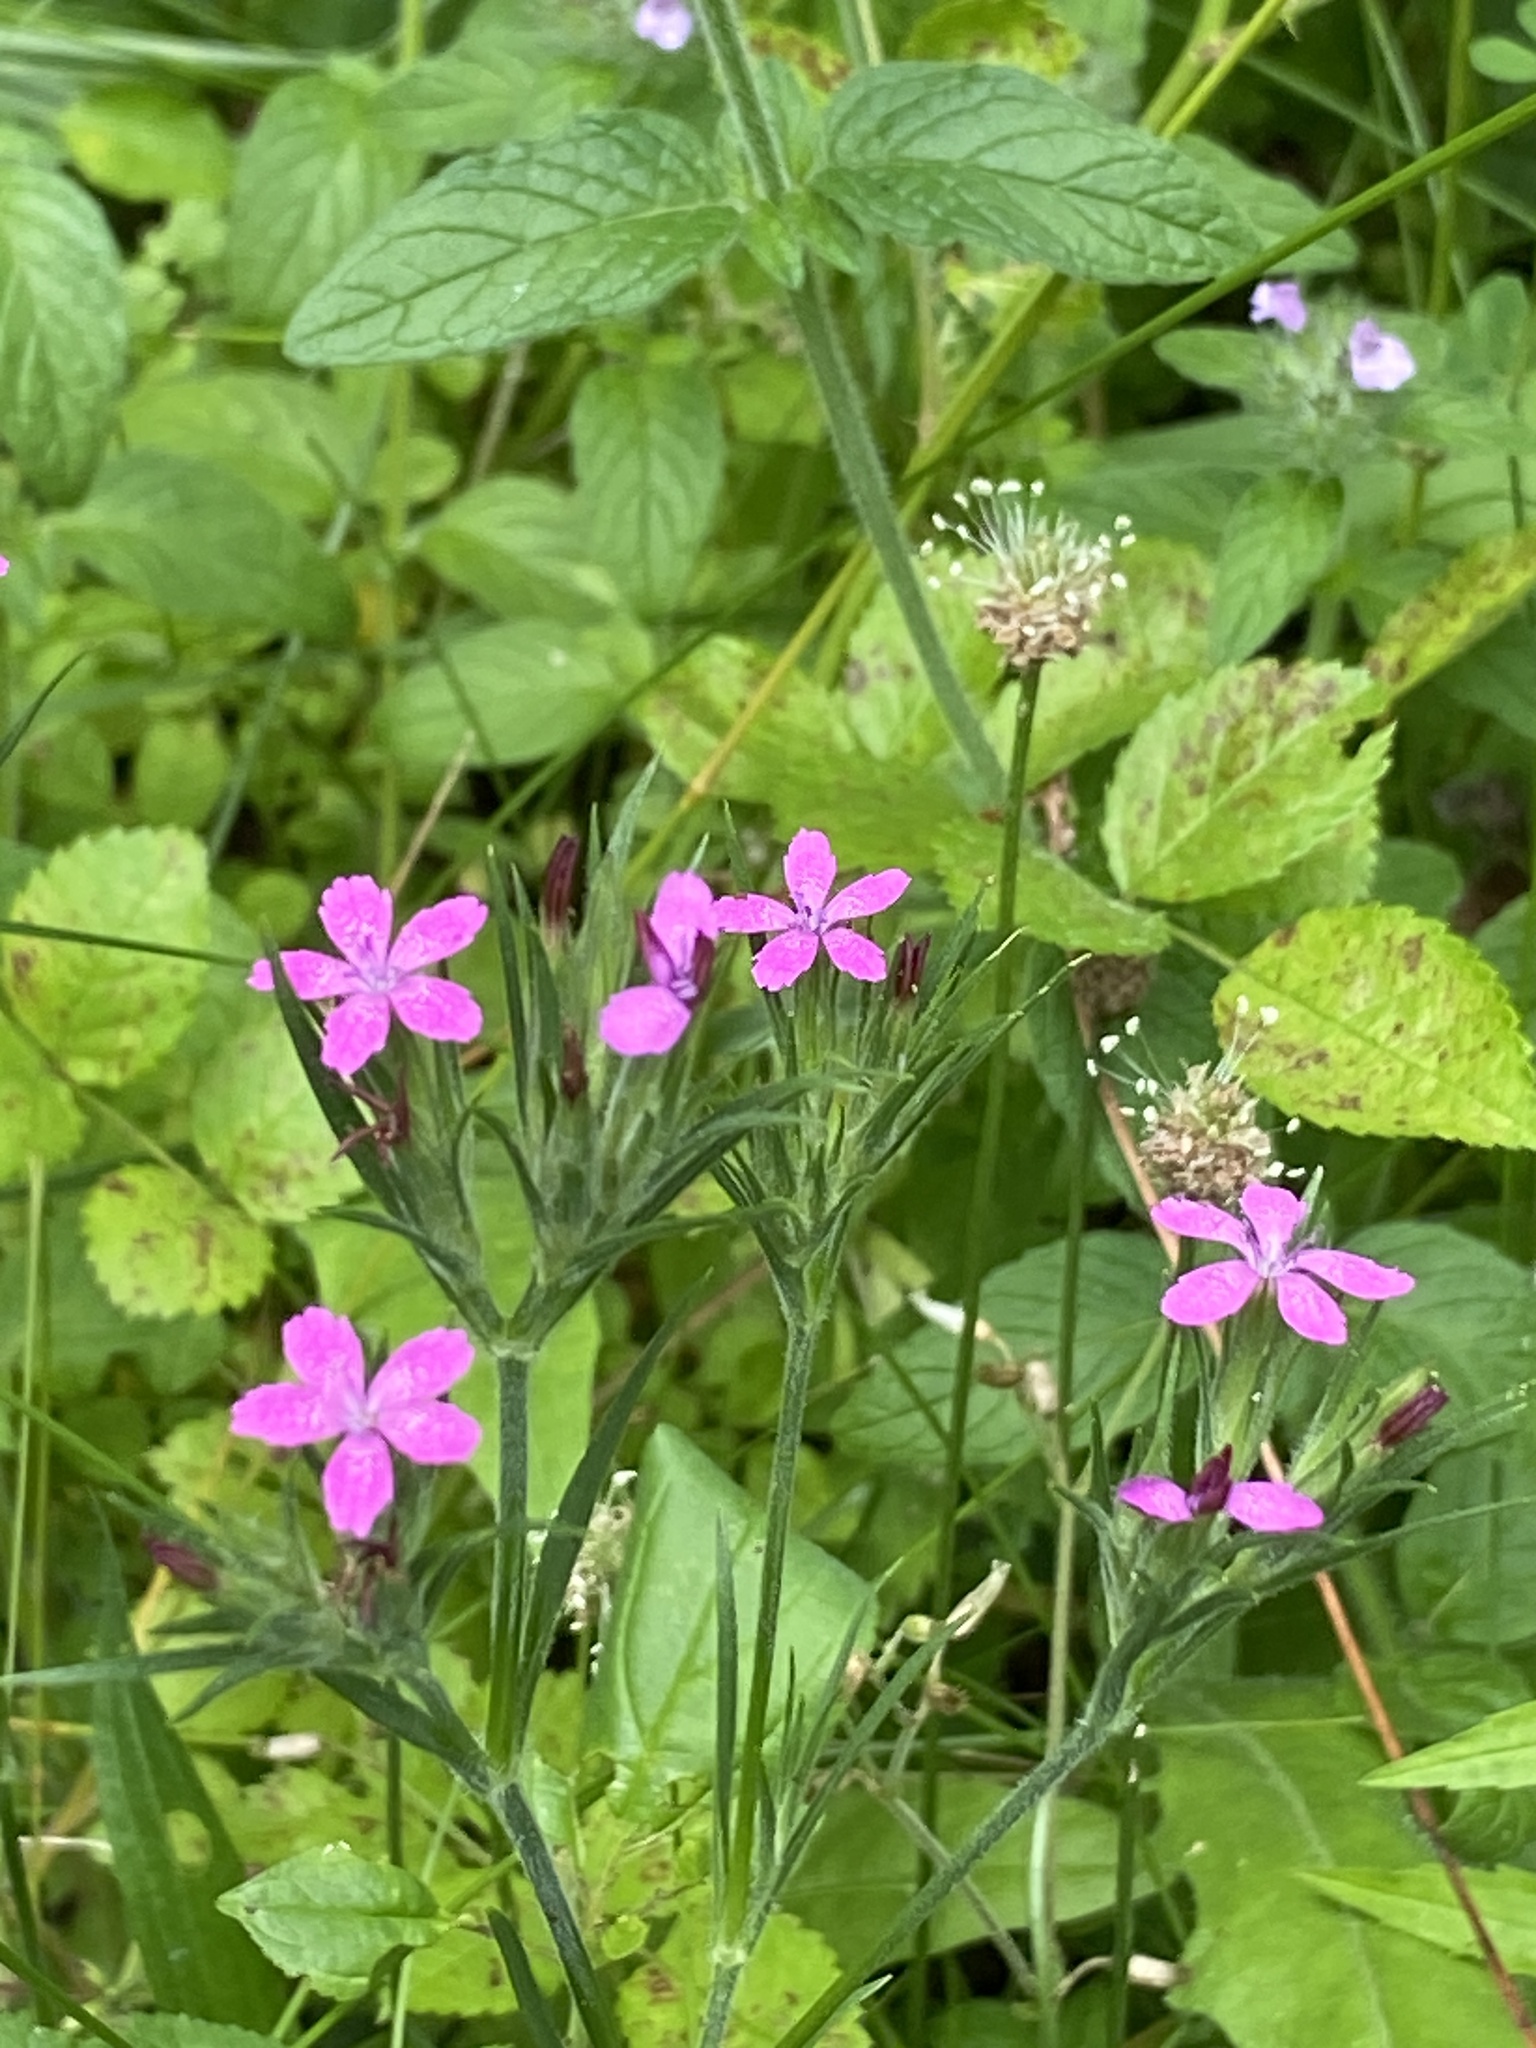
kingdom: Plantae
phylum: Tracheophyta
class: Magnoliopsida
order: Caryophyllales
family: Caryophyllaceae
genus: Dianthus
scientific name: Dianthus armeria
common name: Deptford pink
